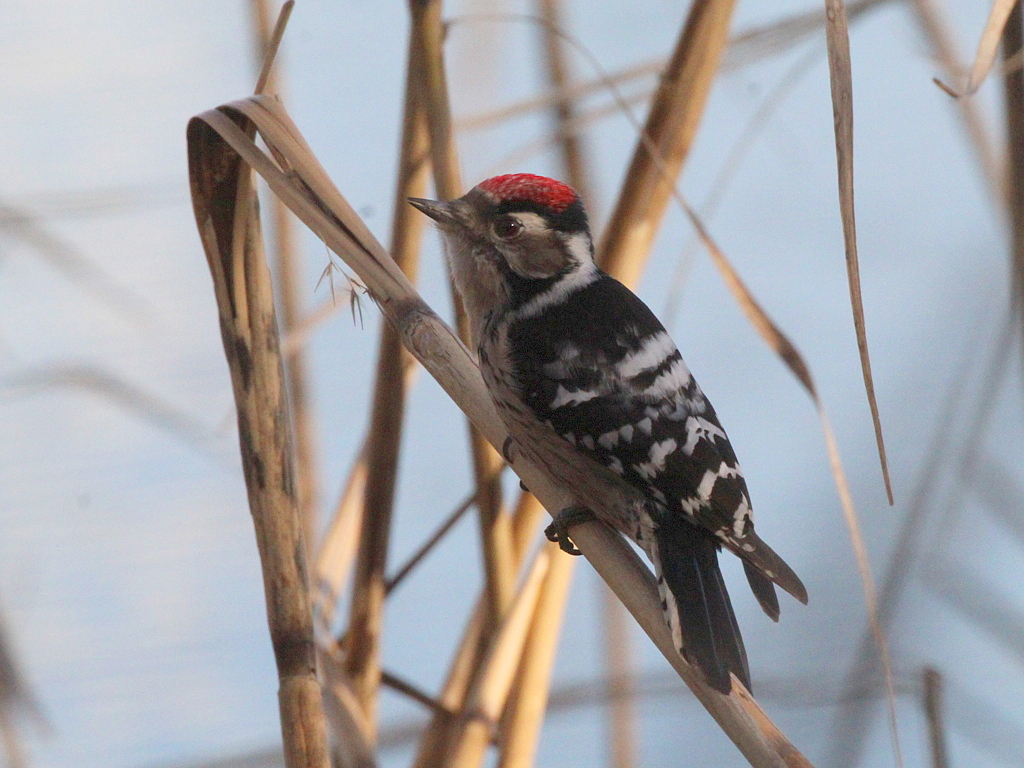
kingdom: Animalia
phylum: Chordata
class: Aves
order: Piciformes
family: Picidae
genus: Dryobates
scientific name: Dryobates minor
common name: Lesser spotted woodpecker
